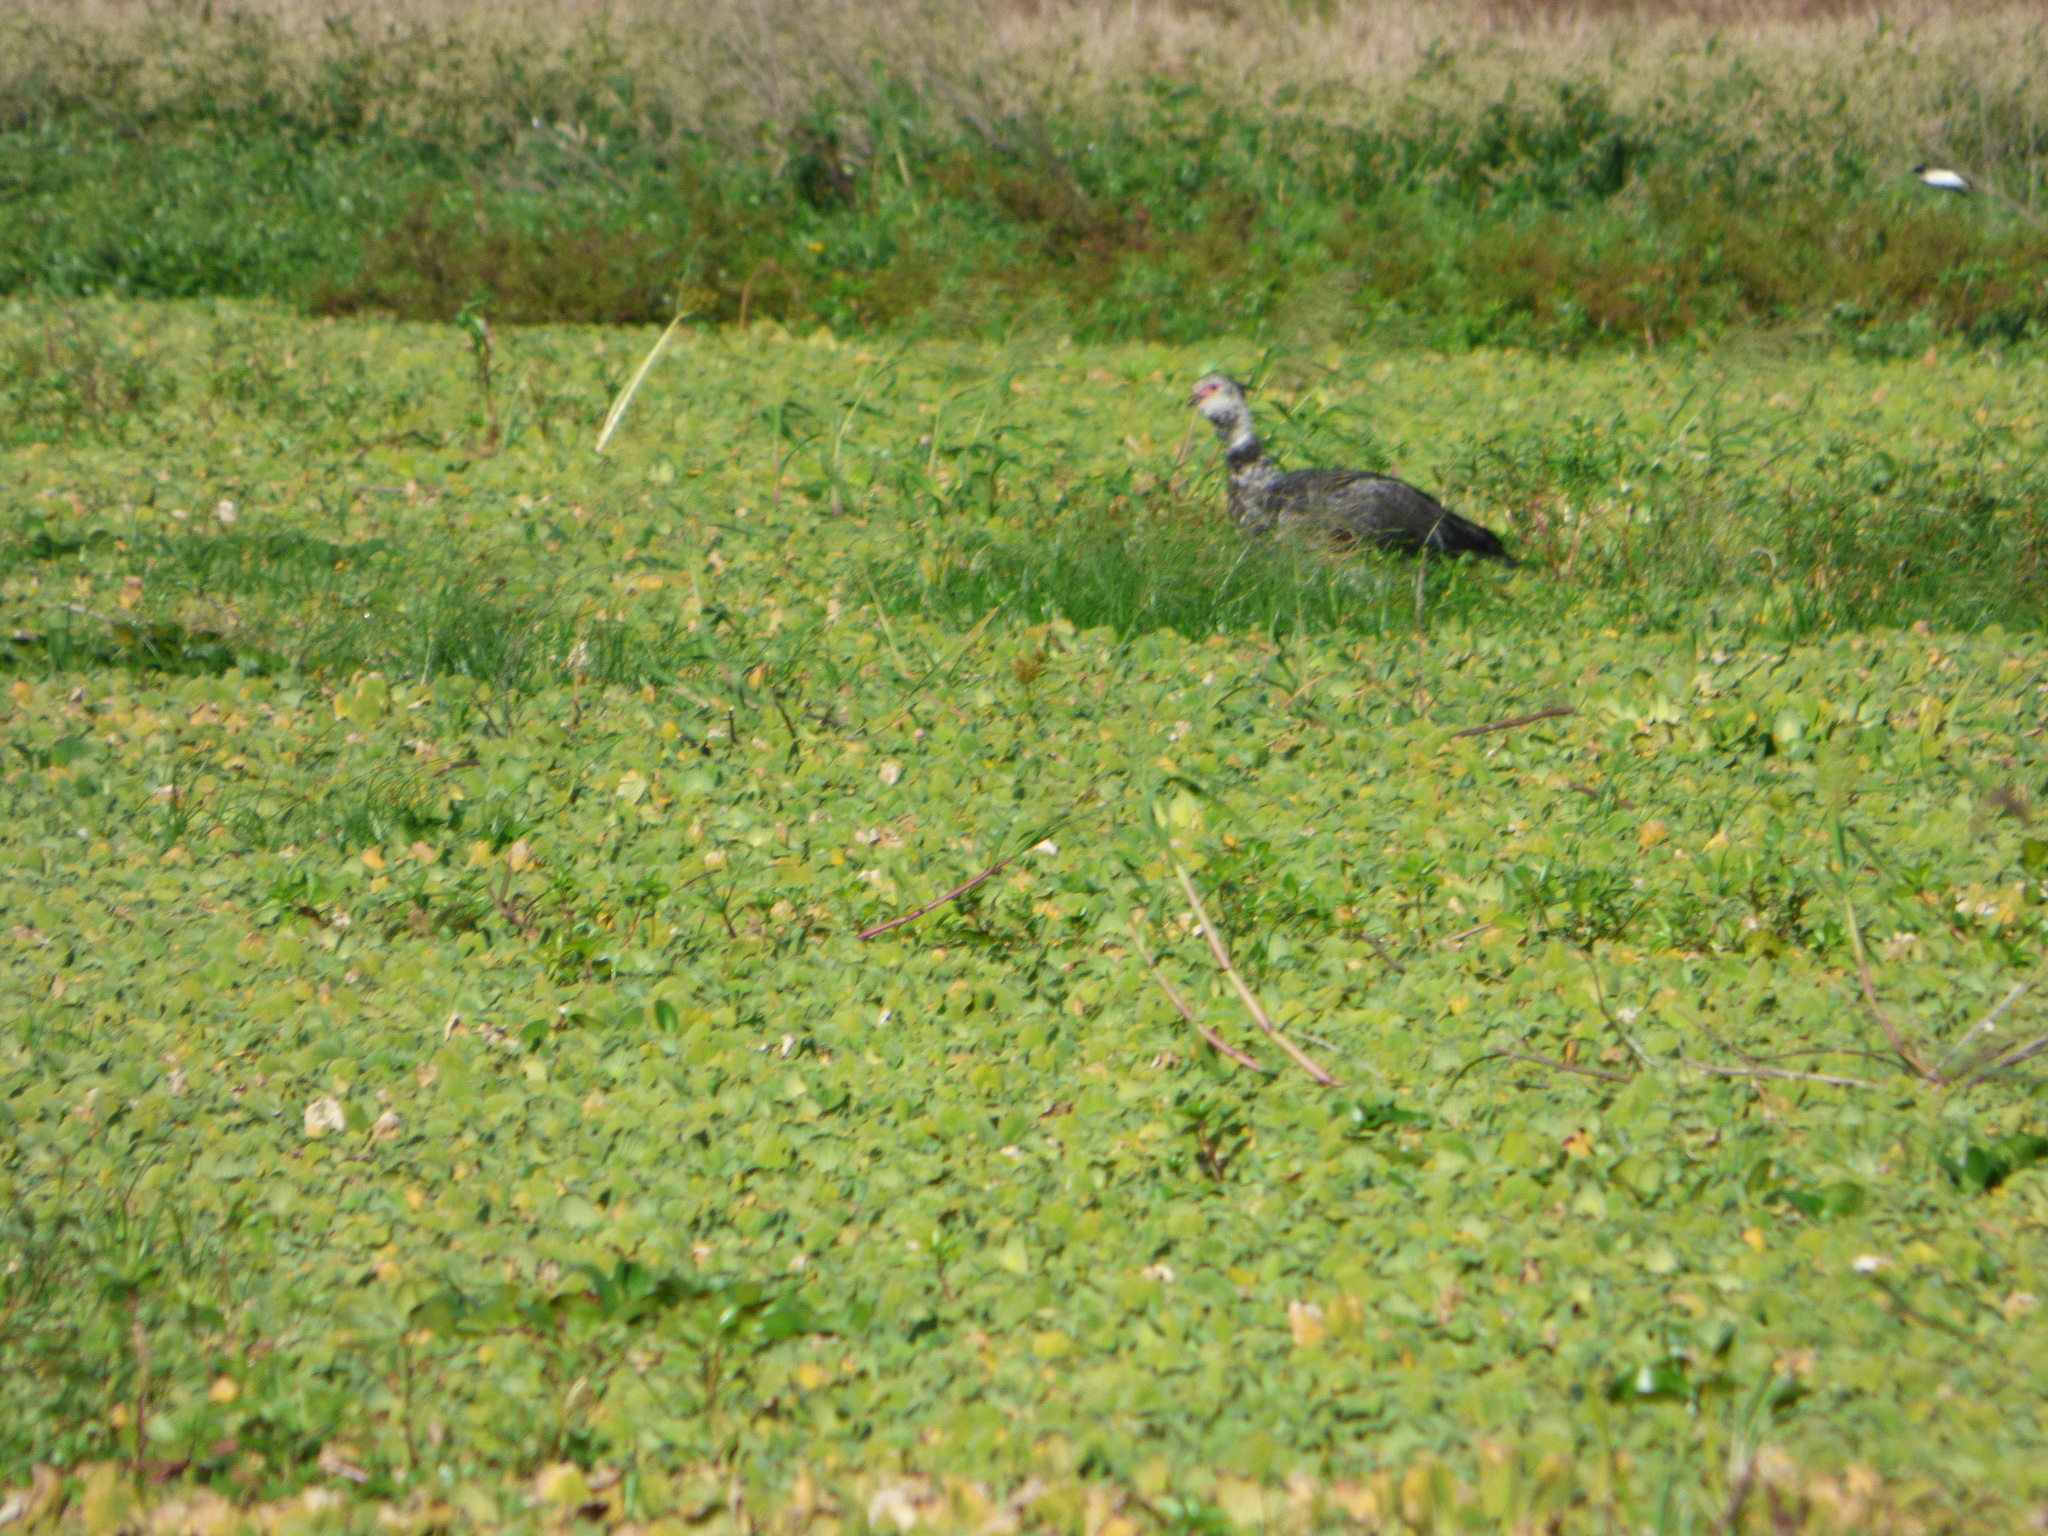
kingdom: Animalia
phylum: Chordata
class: Aves
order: Anseriformes
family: Anhimidae
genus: Chauna
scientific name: Chauna torquata
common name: Southern screamer
